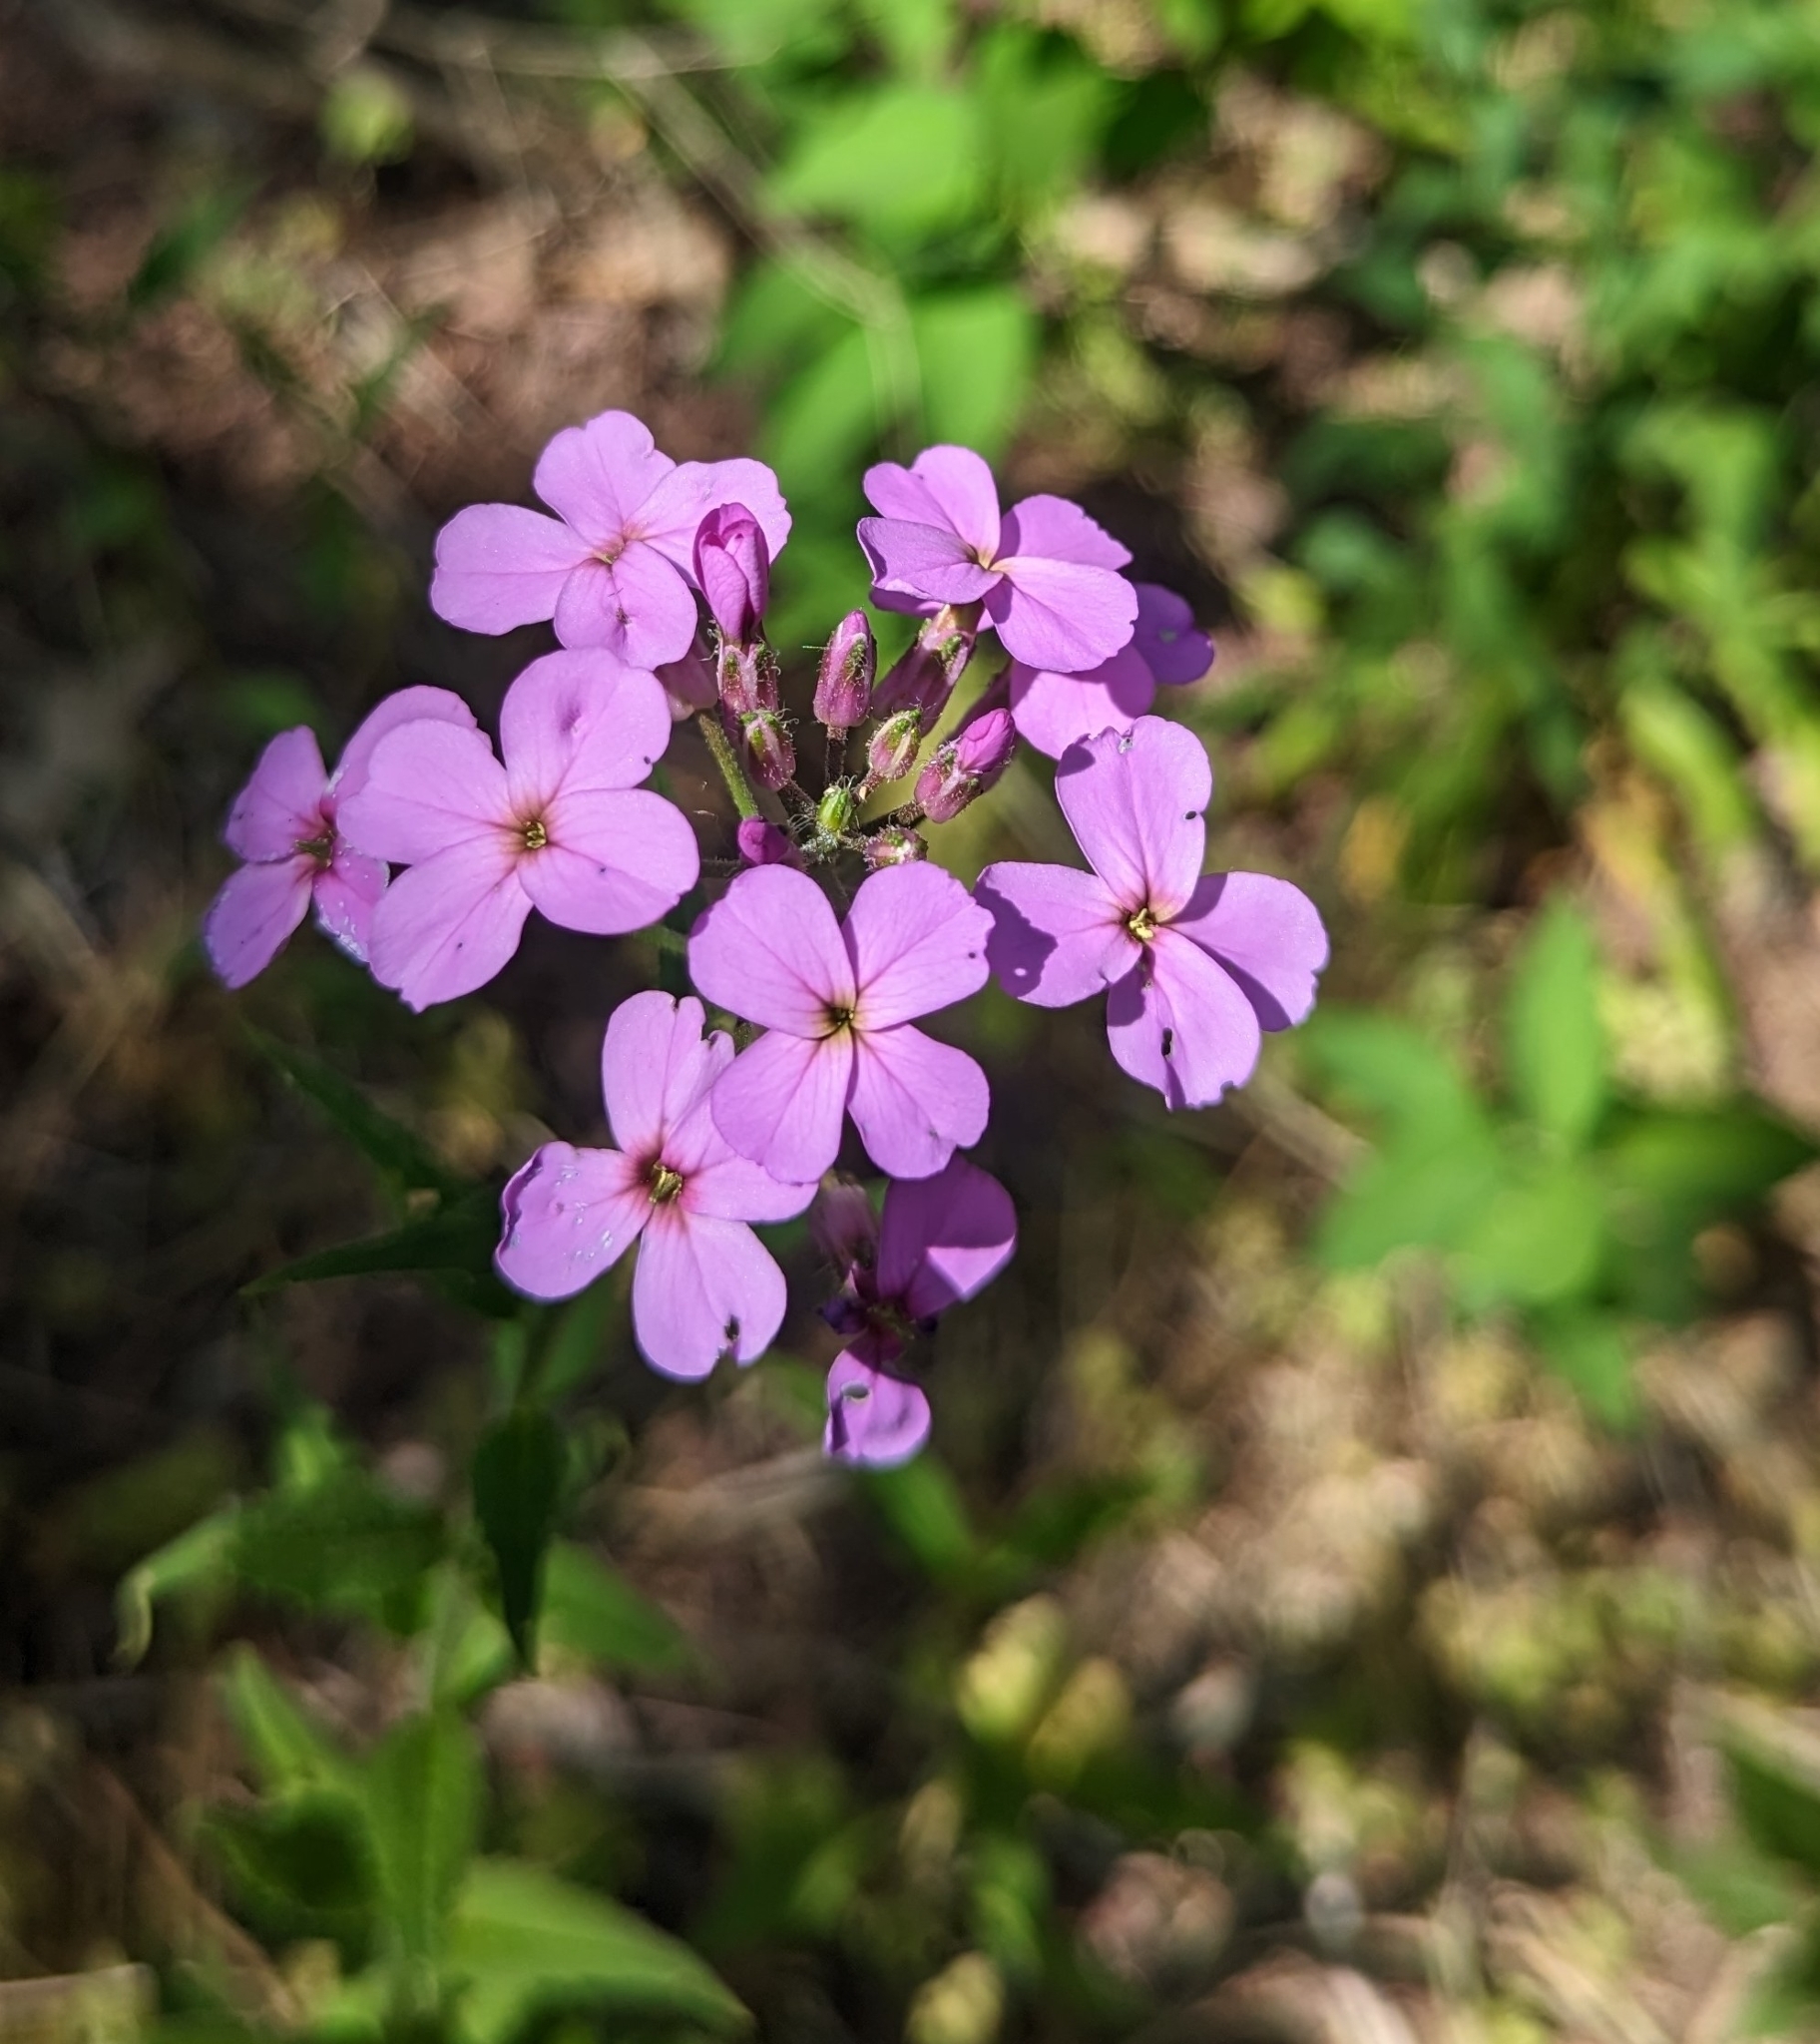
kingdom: Plantae
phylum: Tracheophyta
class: Magnoliopsida
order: Brassicales
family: Brassicaceae
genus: Hesperis
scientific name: Hesperis matronalis
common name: Dame's-violet
